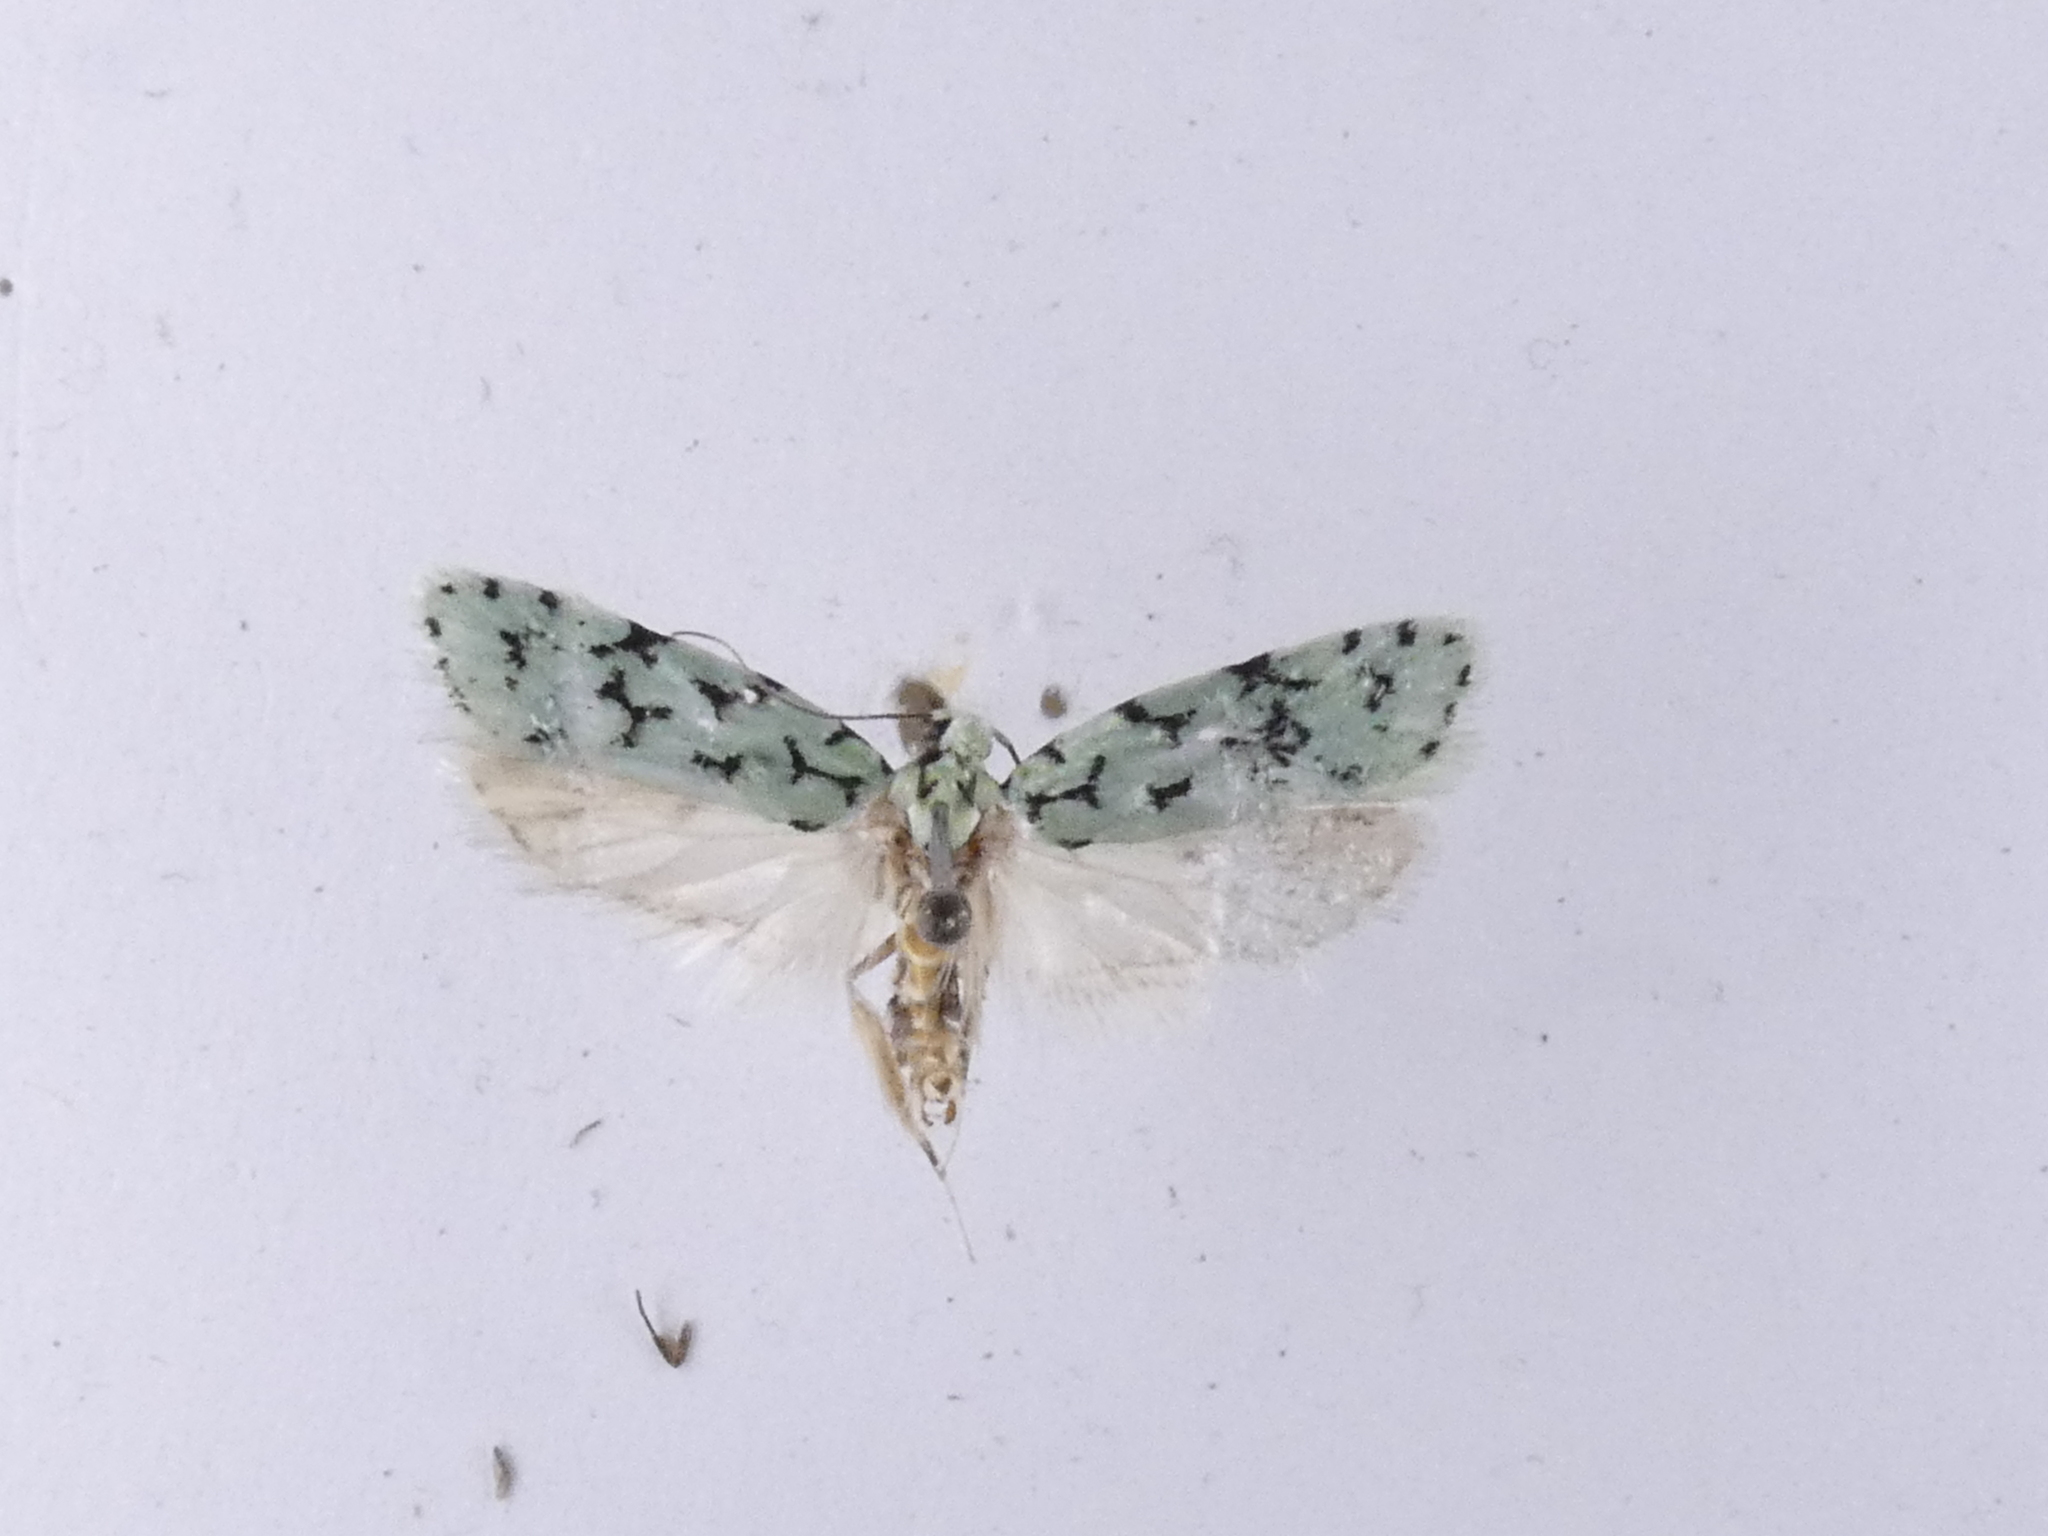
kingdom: Animalia
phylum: Arthropoda
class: Insecta
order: Lepidoptera
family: Oecophoridae
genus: Izatha
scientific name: Izatha huttoni
